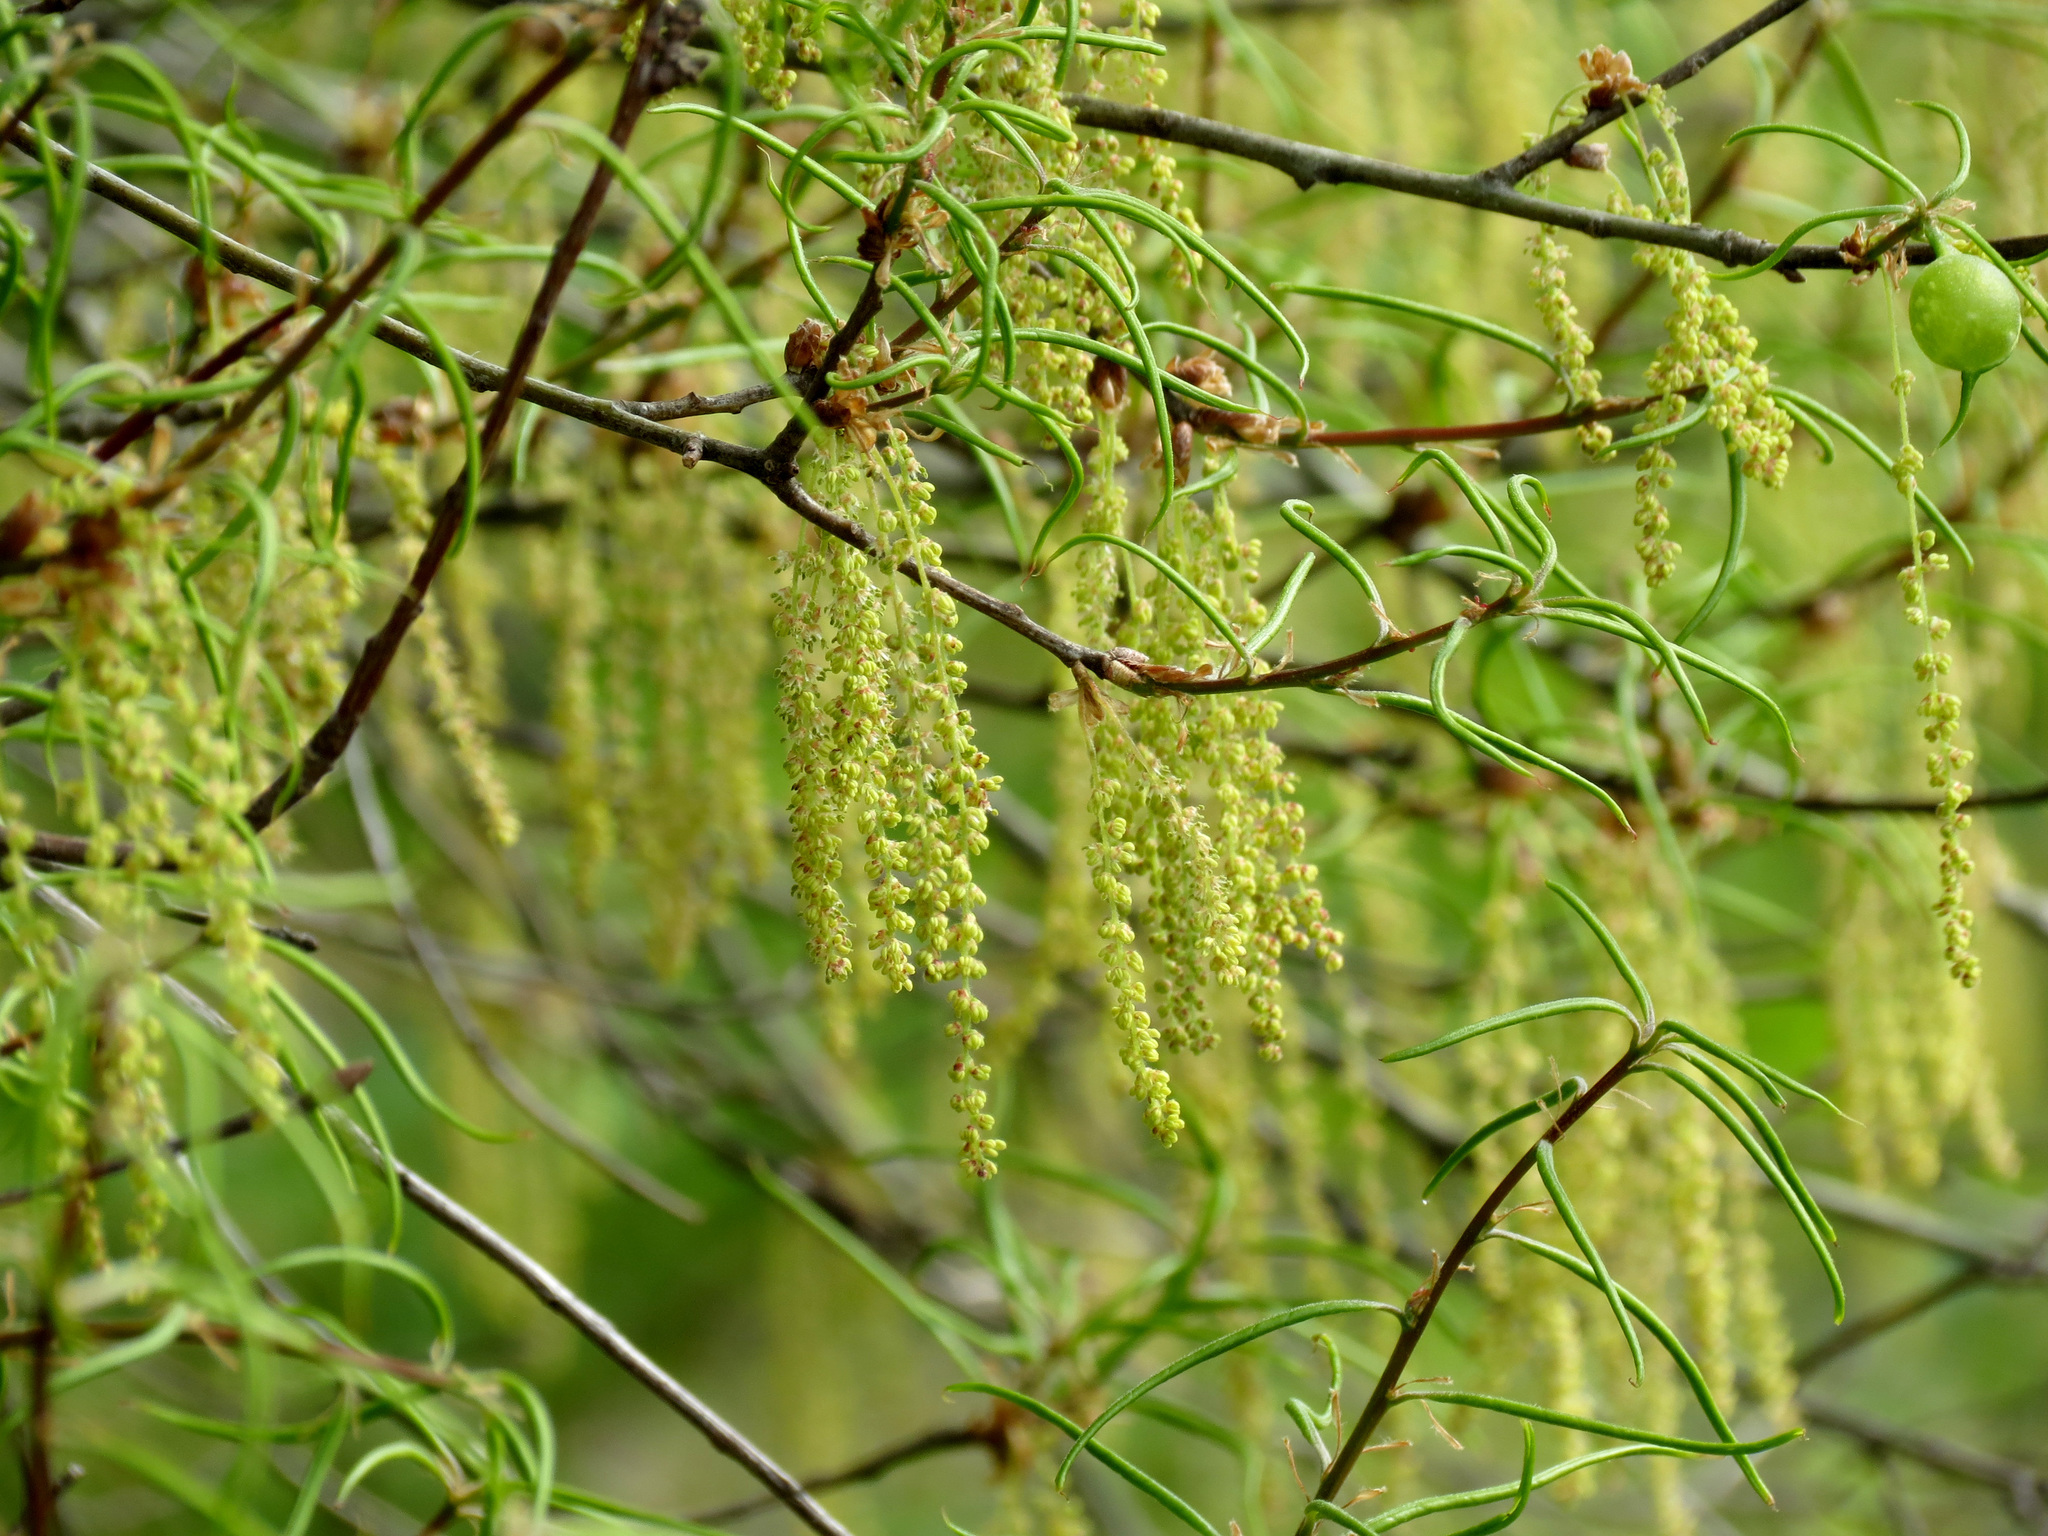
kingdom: Plantae
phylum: Tracheophyta
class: Magnoliopsida
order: Fagales
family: Fagaceae
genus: Quercus
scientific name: Quercus phellos
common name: Willow oak
